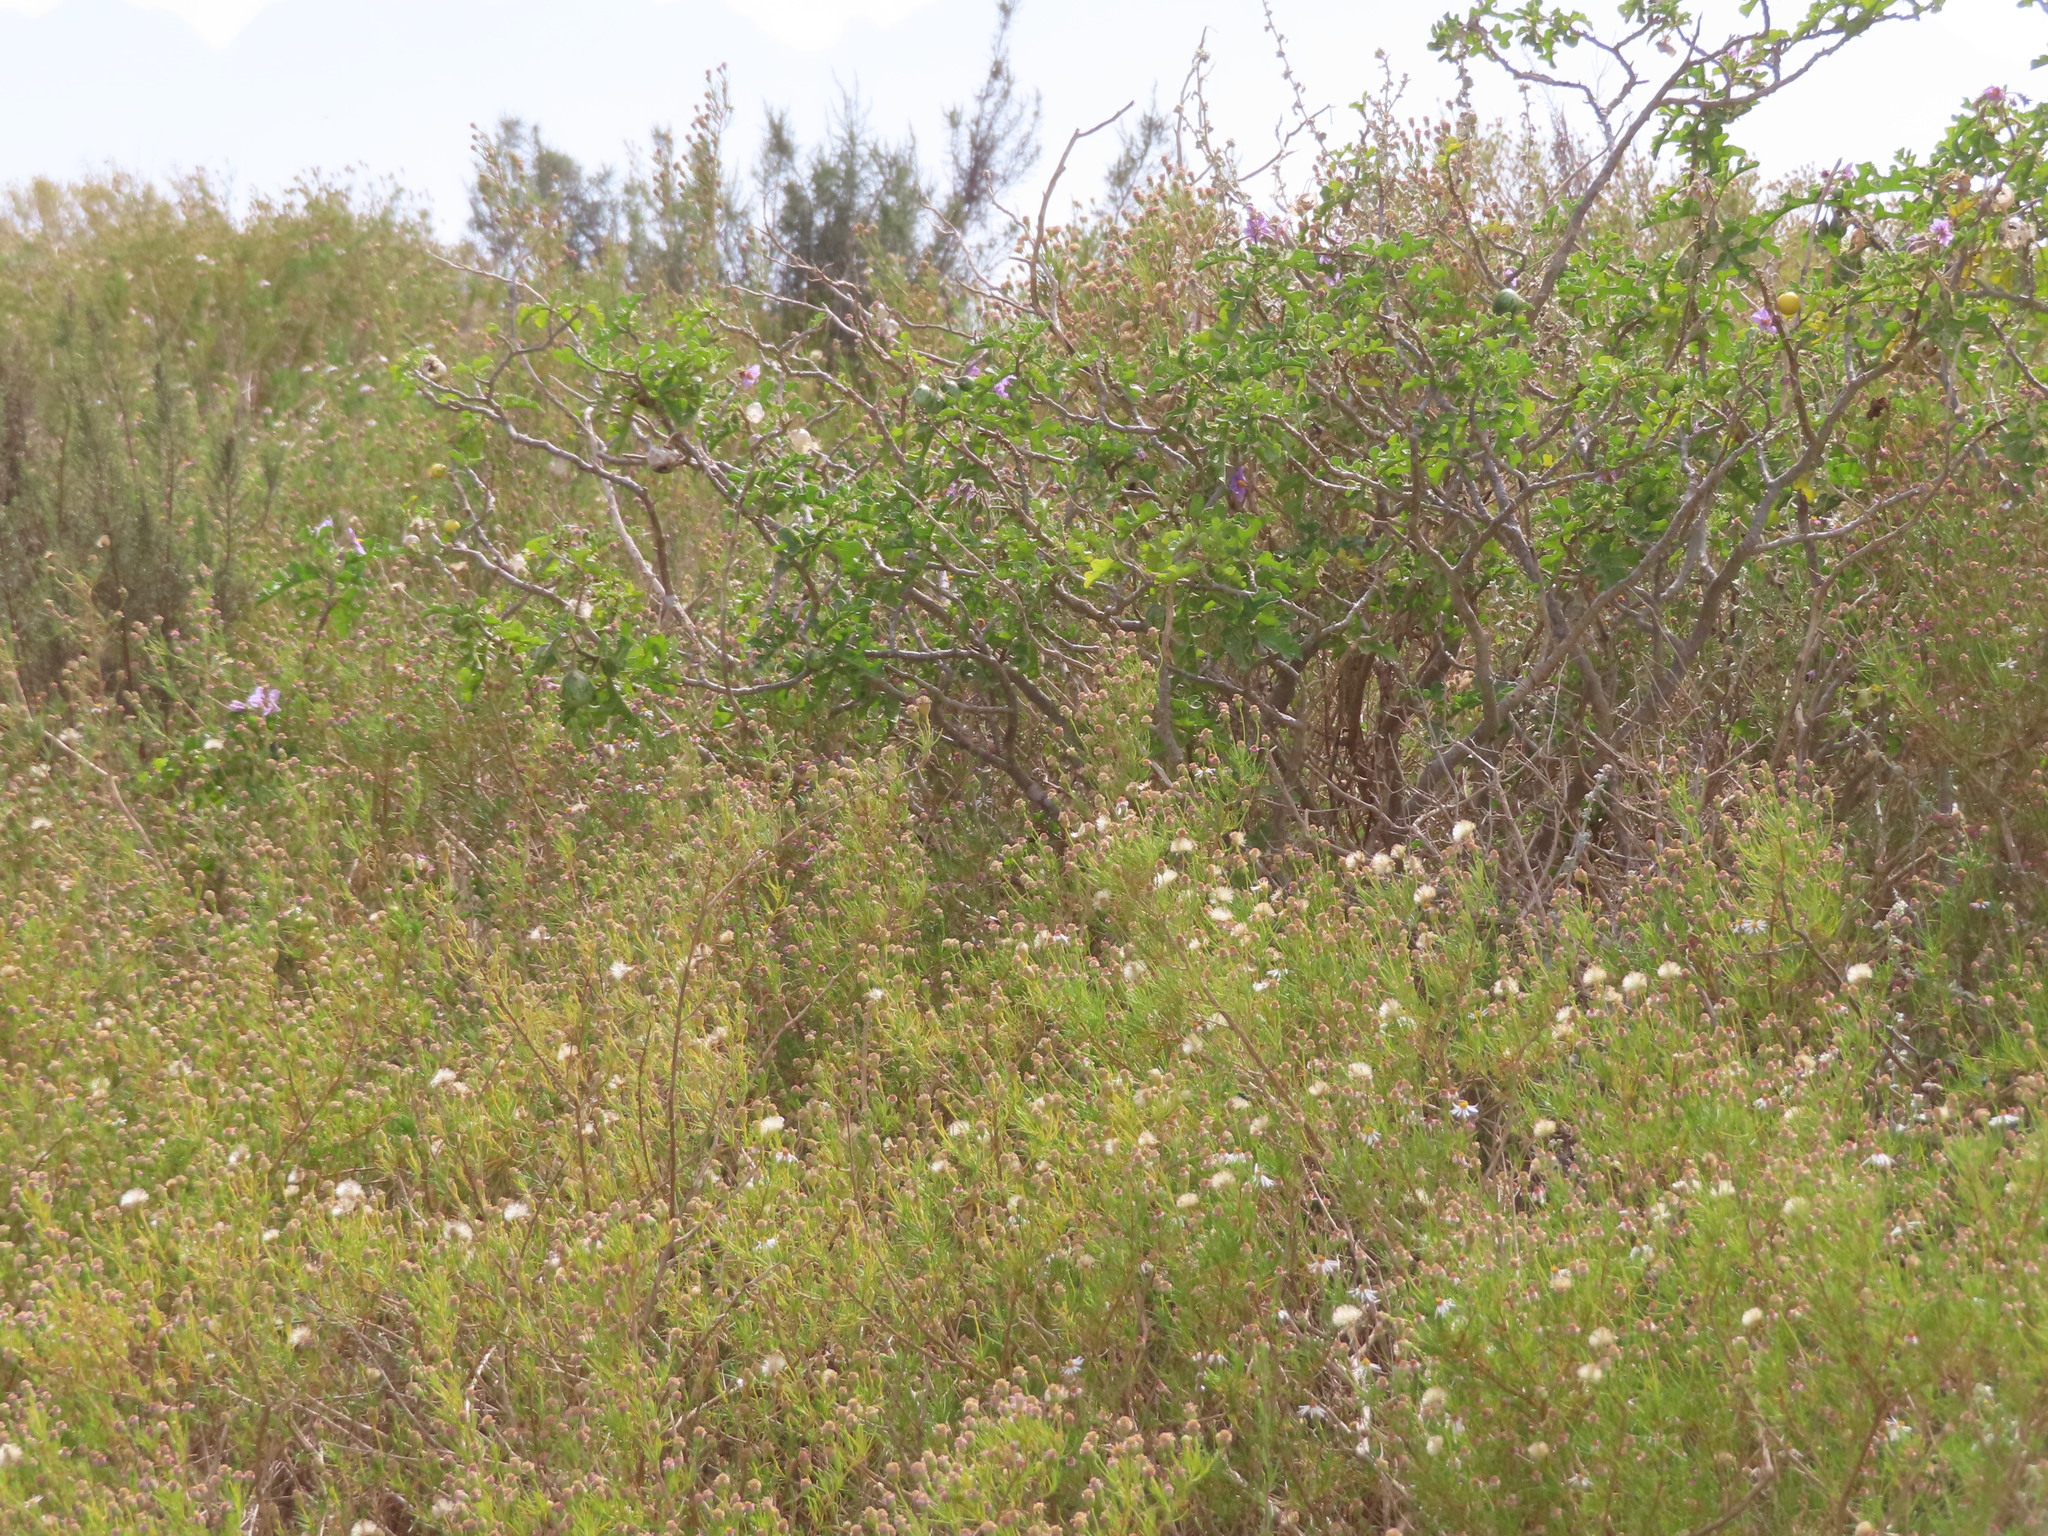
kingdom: Plantae
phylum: Tracheophyta
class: Magnoliopsida
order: Solanales
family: Solanaceae
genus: Solanum
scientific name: Solanum linnaeanum
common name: Nightshade
